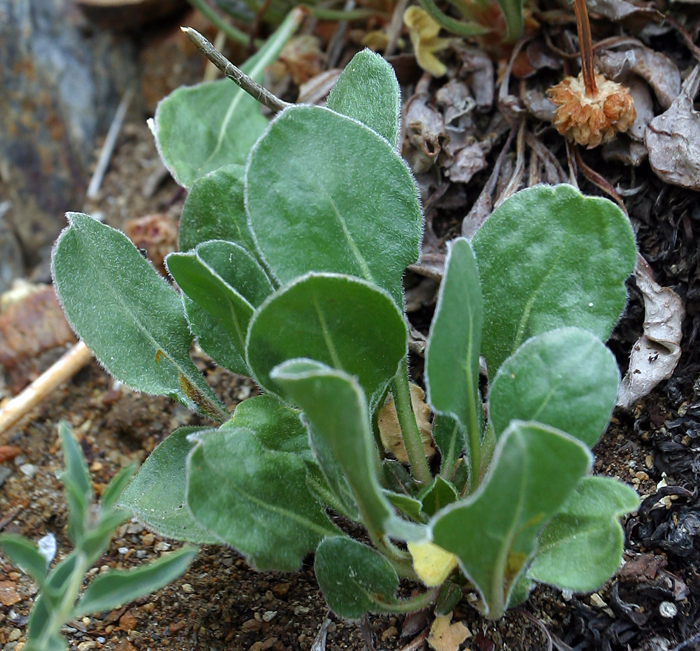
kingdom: Plantae
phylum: Tracheophyta
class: Magnoliopsida
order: Caryophyllales
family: Polygonaceae
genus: Eriogonum
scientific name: Eriogonum latens
